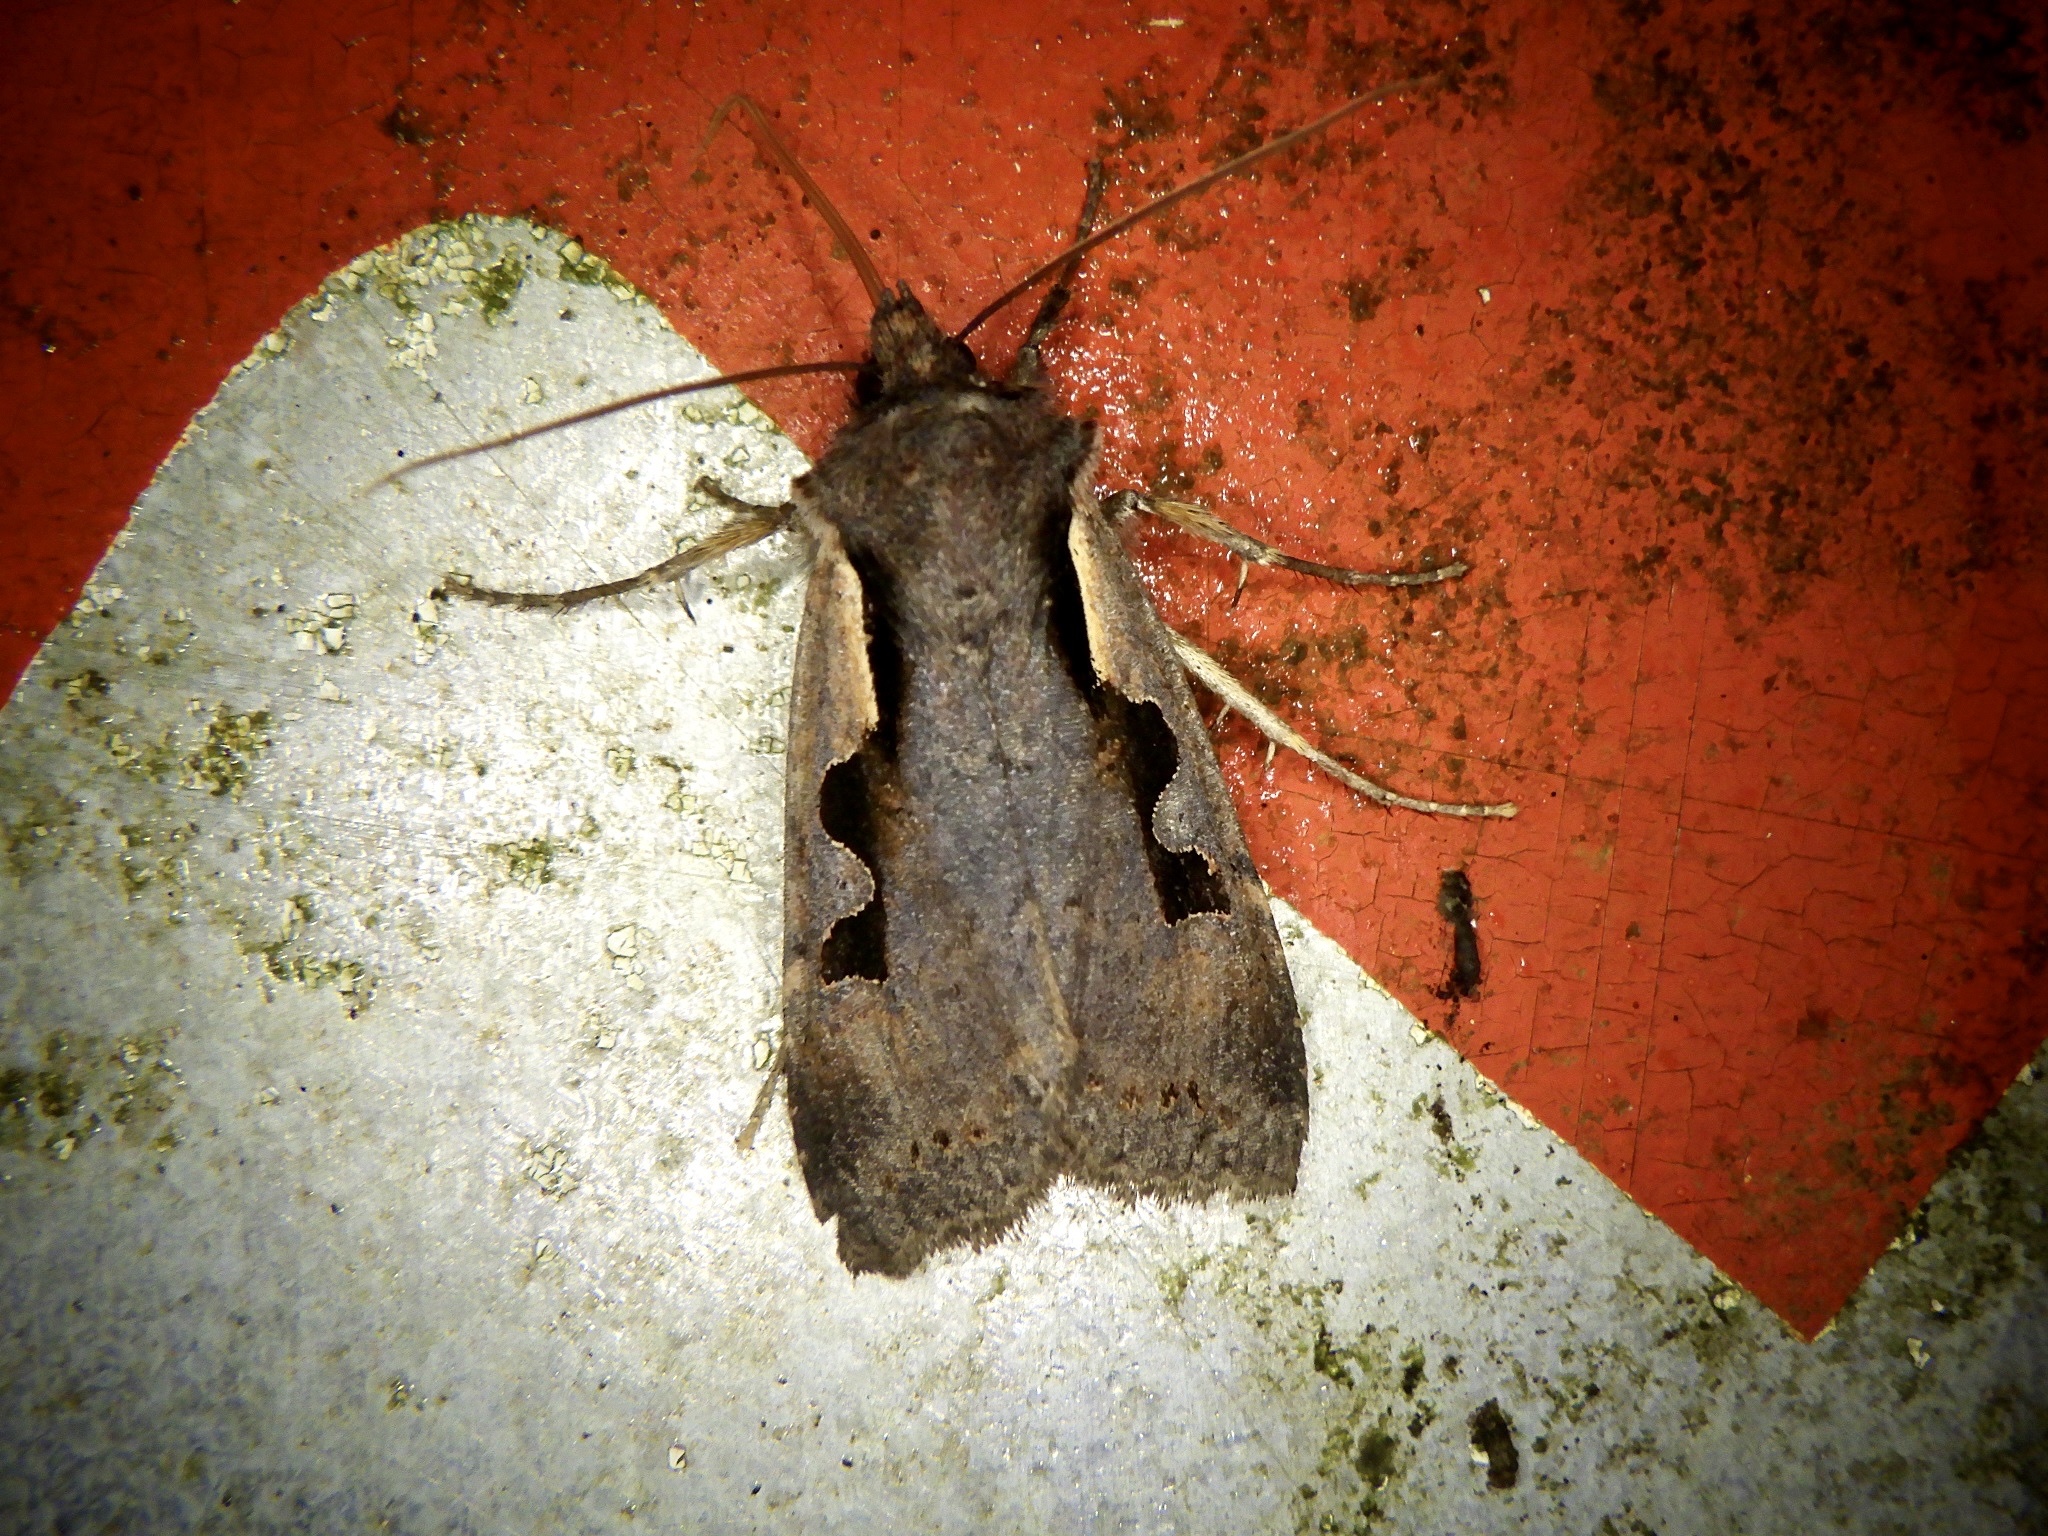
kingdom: Animalia
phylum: Arthropoda
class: Insecta
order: Lepidoptera
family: Noctuidae
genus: Sugitania
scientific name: Sugitania lepida
